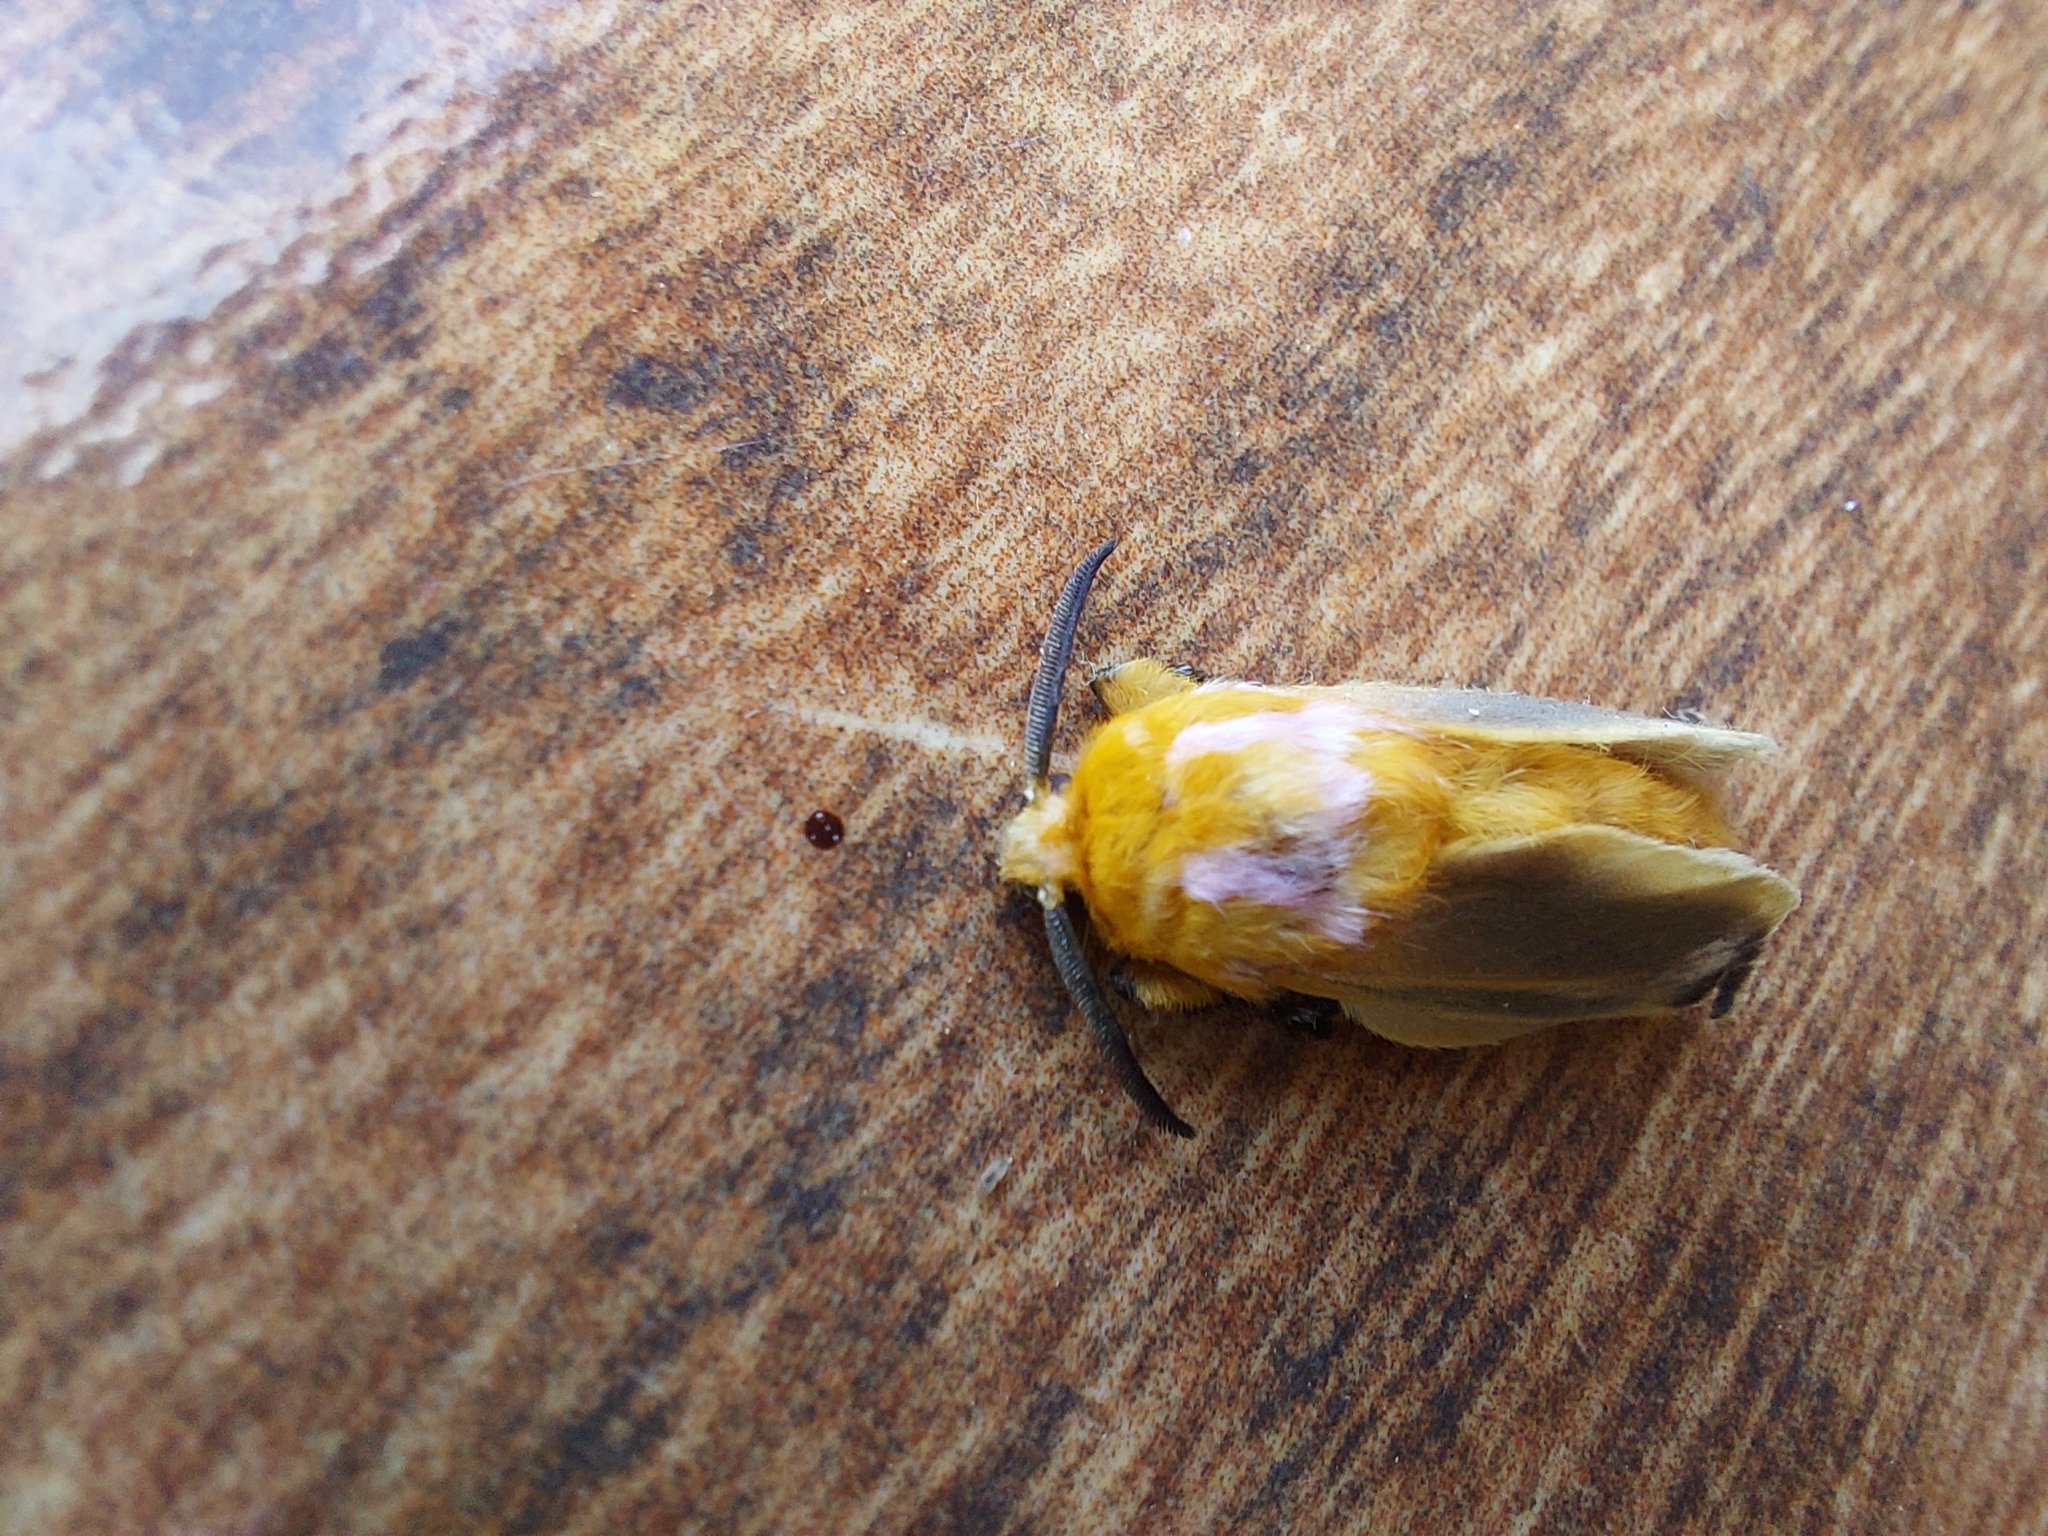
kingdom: Animalia
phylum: Arthropoda
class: Insecta
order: Lepidoptera
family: Megalopygidae
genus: Endobrachys
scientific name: Endobrachys revocans
